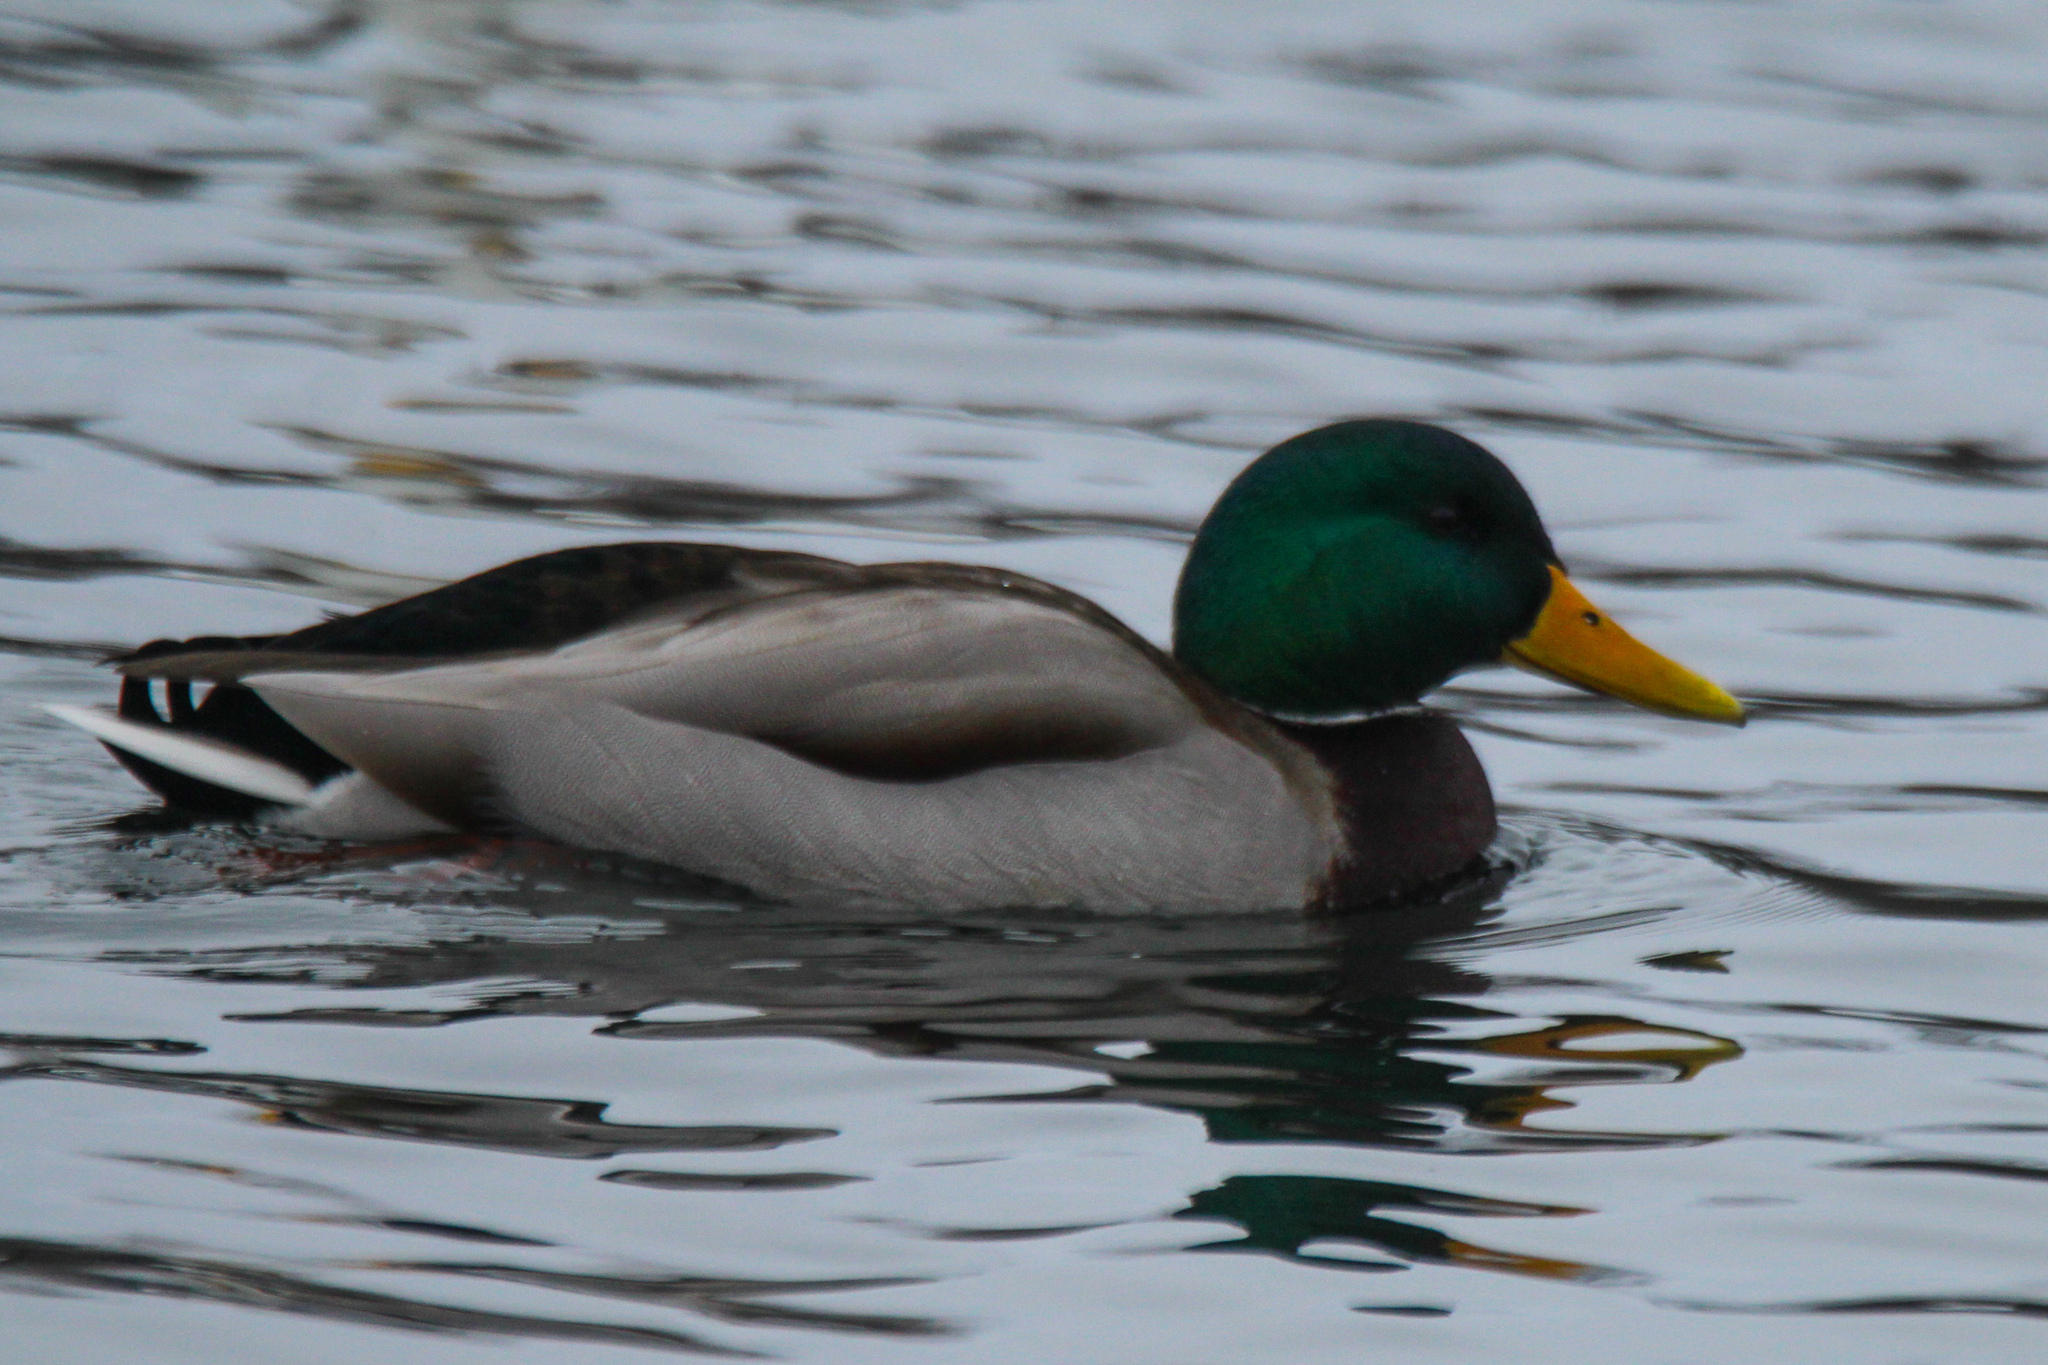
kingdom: Animalia
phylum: Chordata
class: Aves
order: Anseriformes
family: Anatidae
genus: Anas
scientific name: Anas platyrhynchos
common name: Mallard
